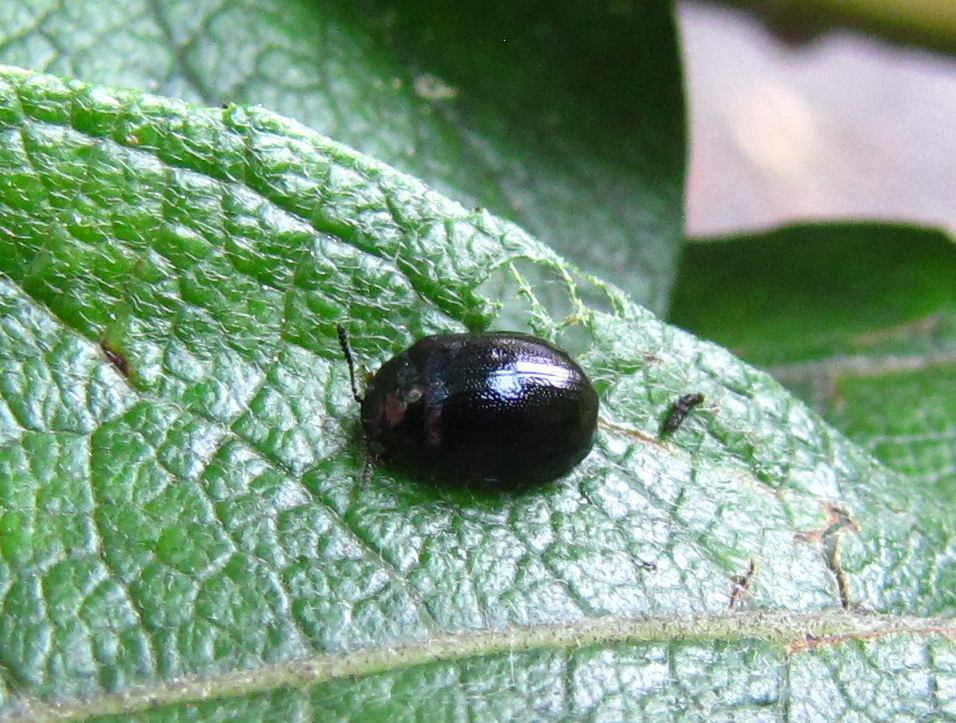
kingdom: Animalia
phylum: Arthropoda
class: Insecta
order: Coleoptera
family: Chrysomelidae
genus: Plagiodera
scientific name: Plagiodera versicolora
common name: Imported willow leaf beetle
